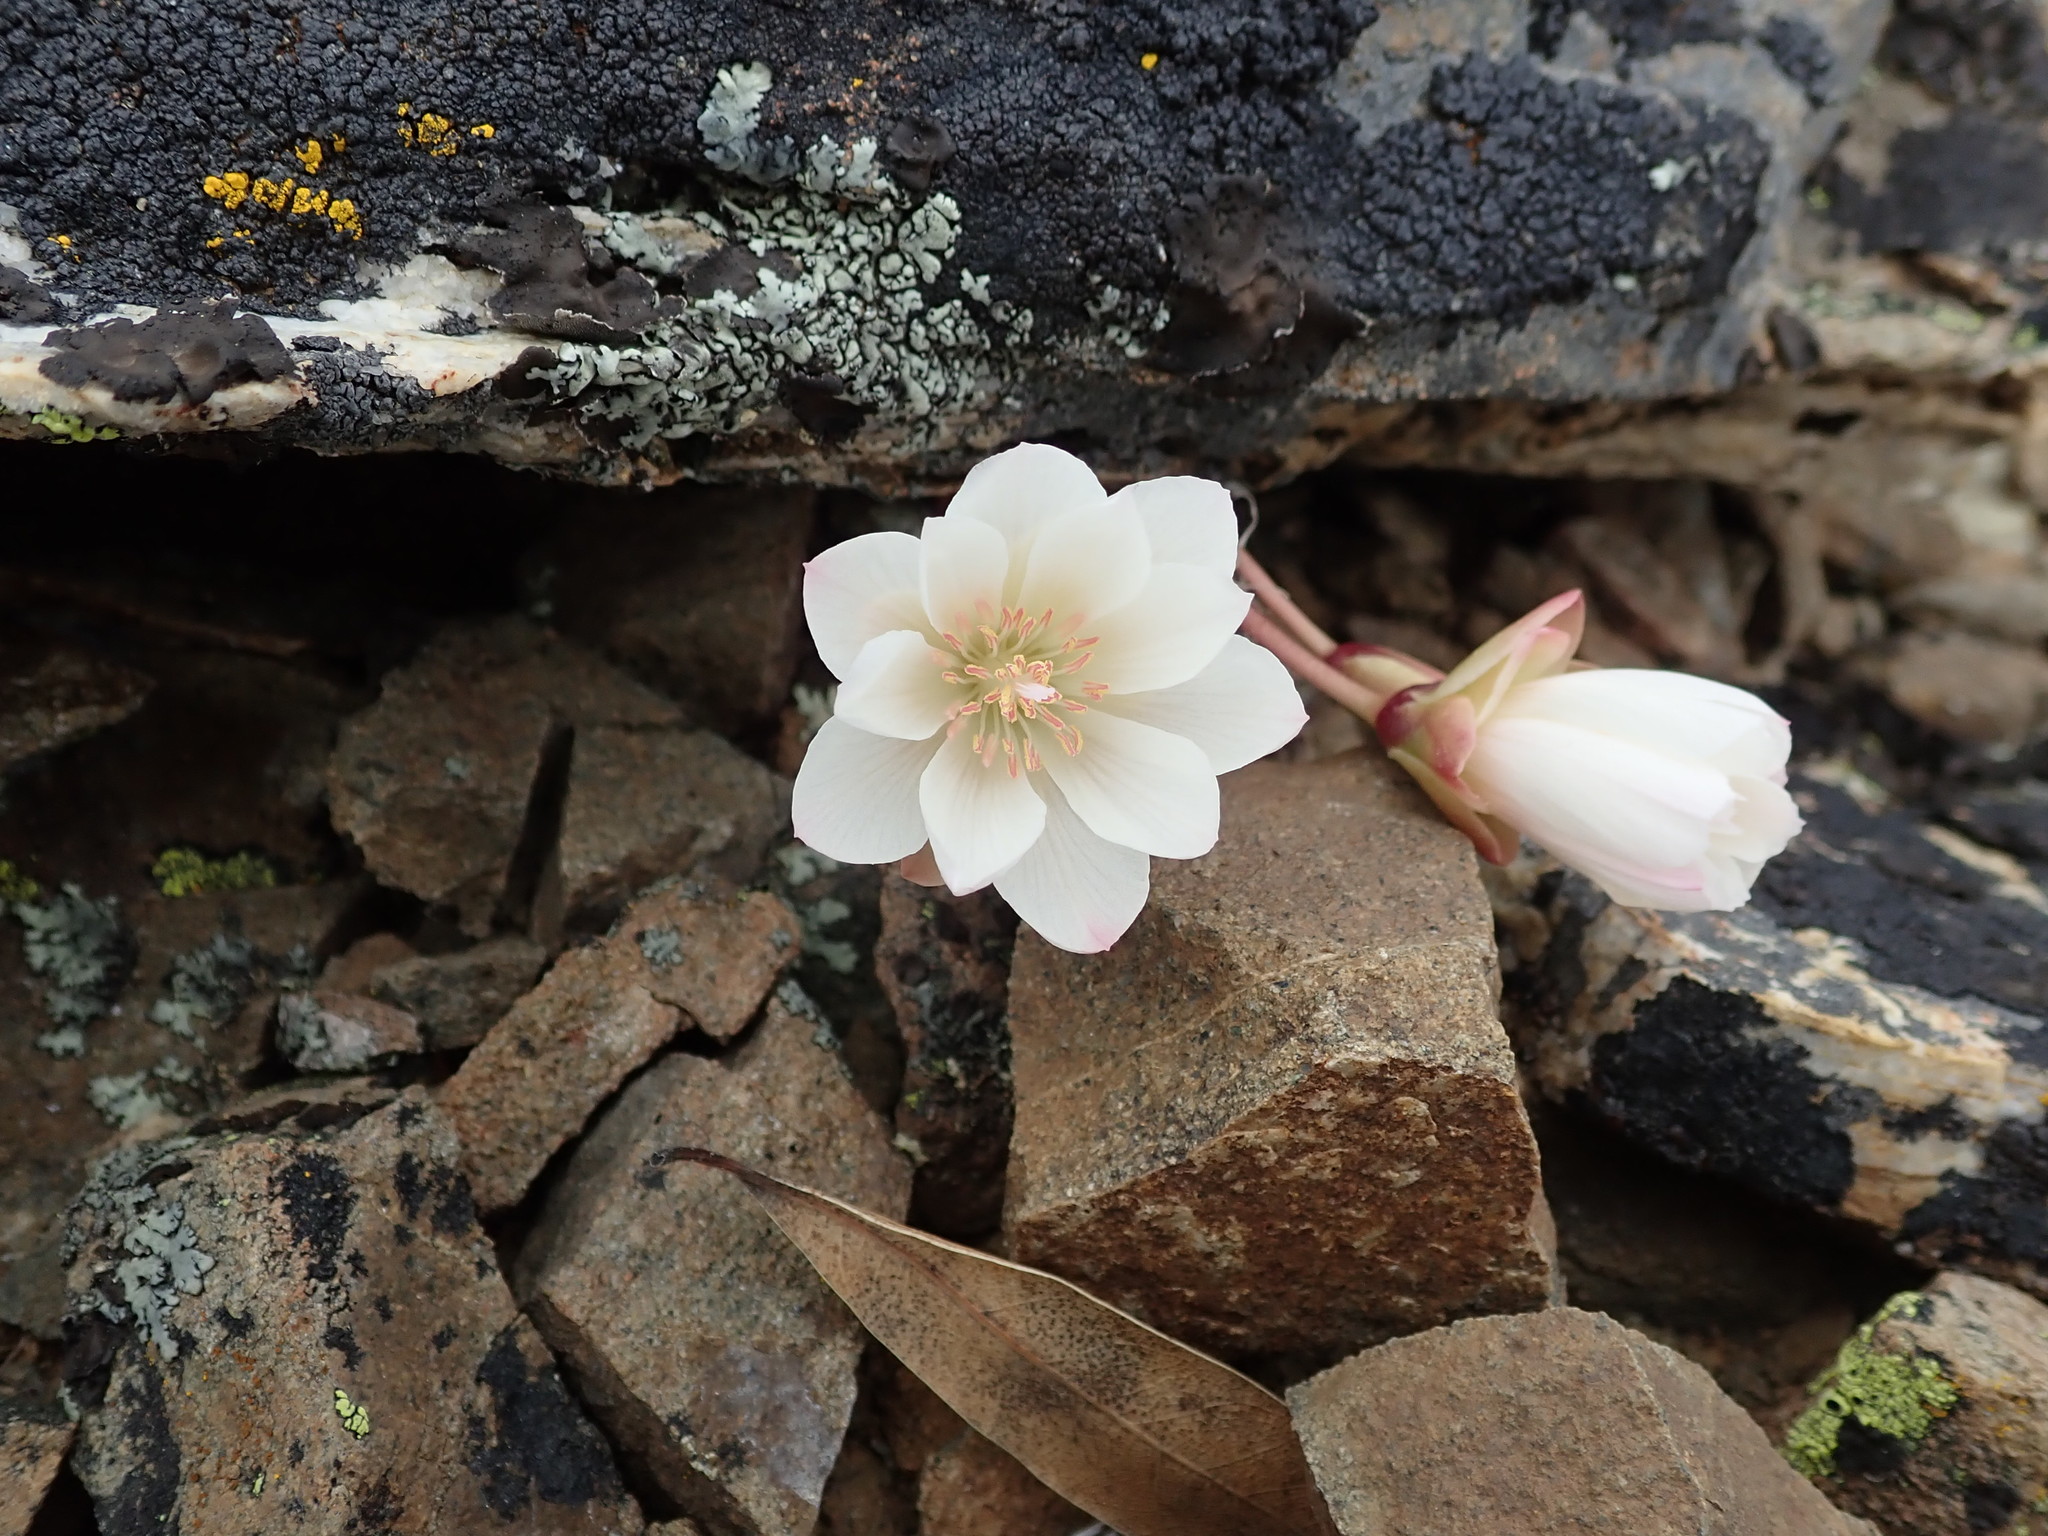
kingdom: Plantae
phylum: Tracheophyta
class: Magnoliopsida
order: Caryophyllales
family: Montiaceae
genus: Lewisia
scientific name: Lewisia rediviva
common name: Bitter-root
